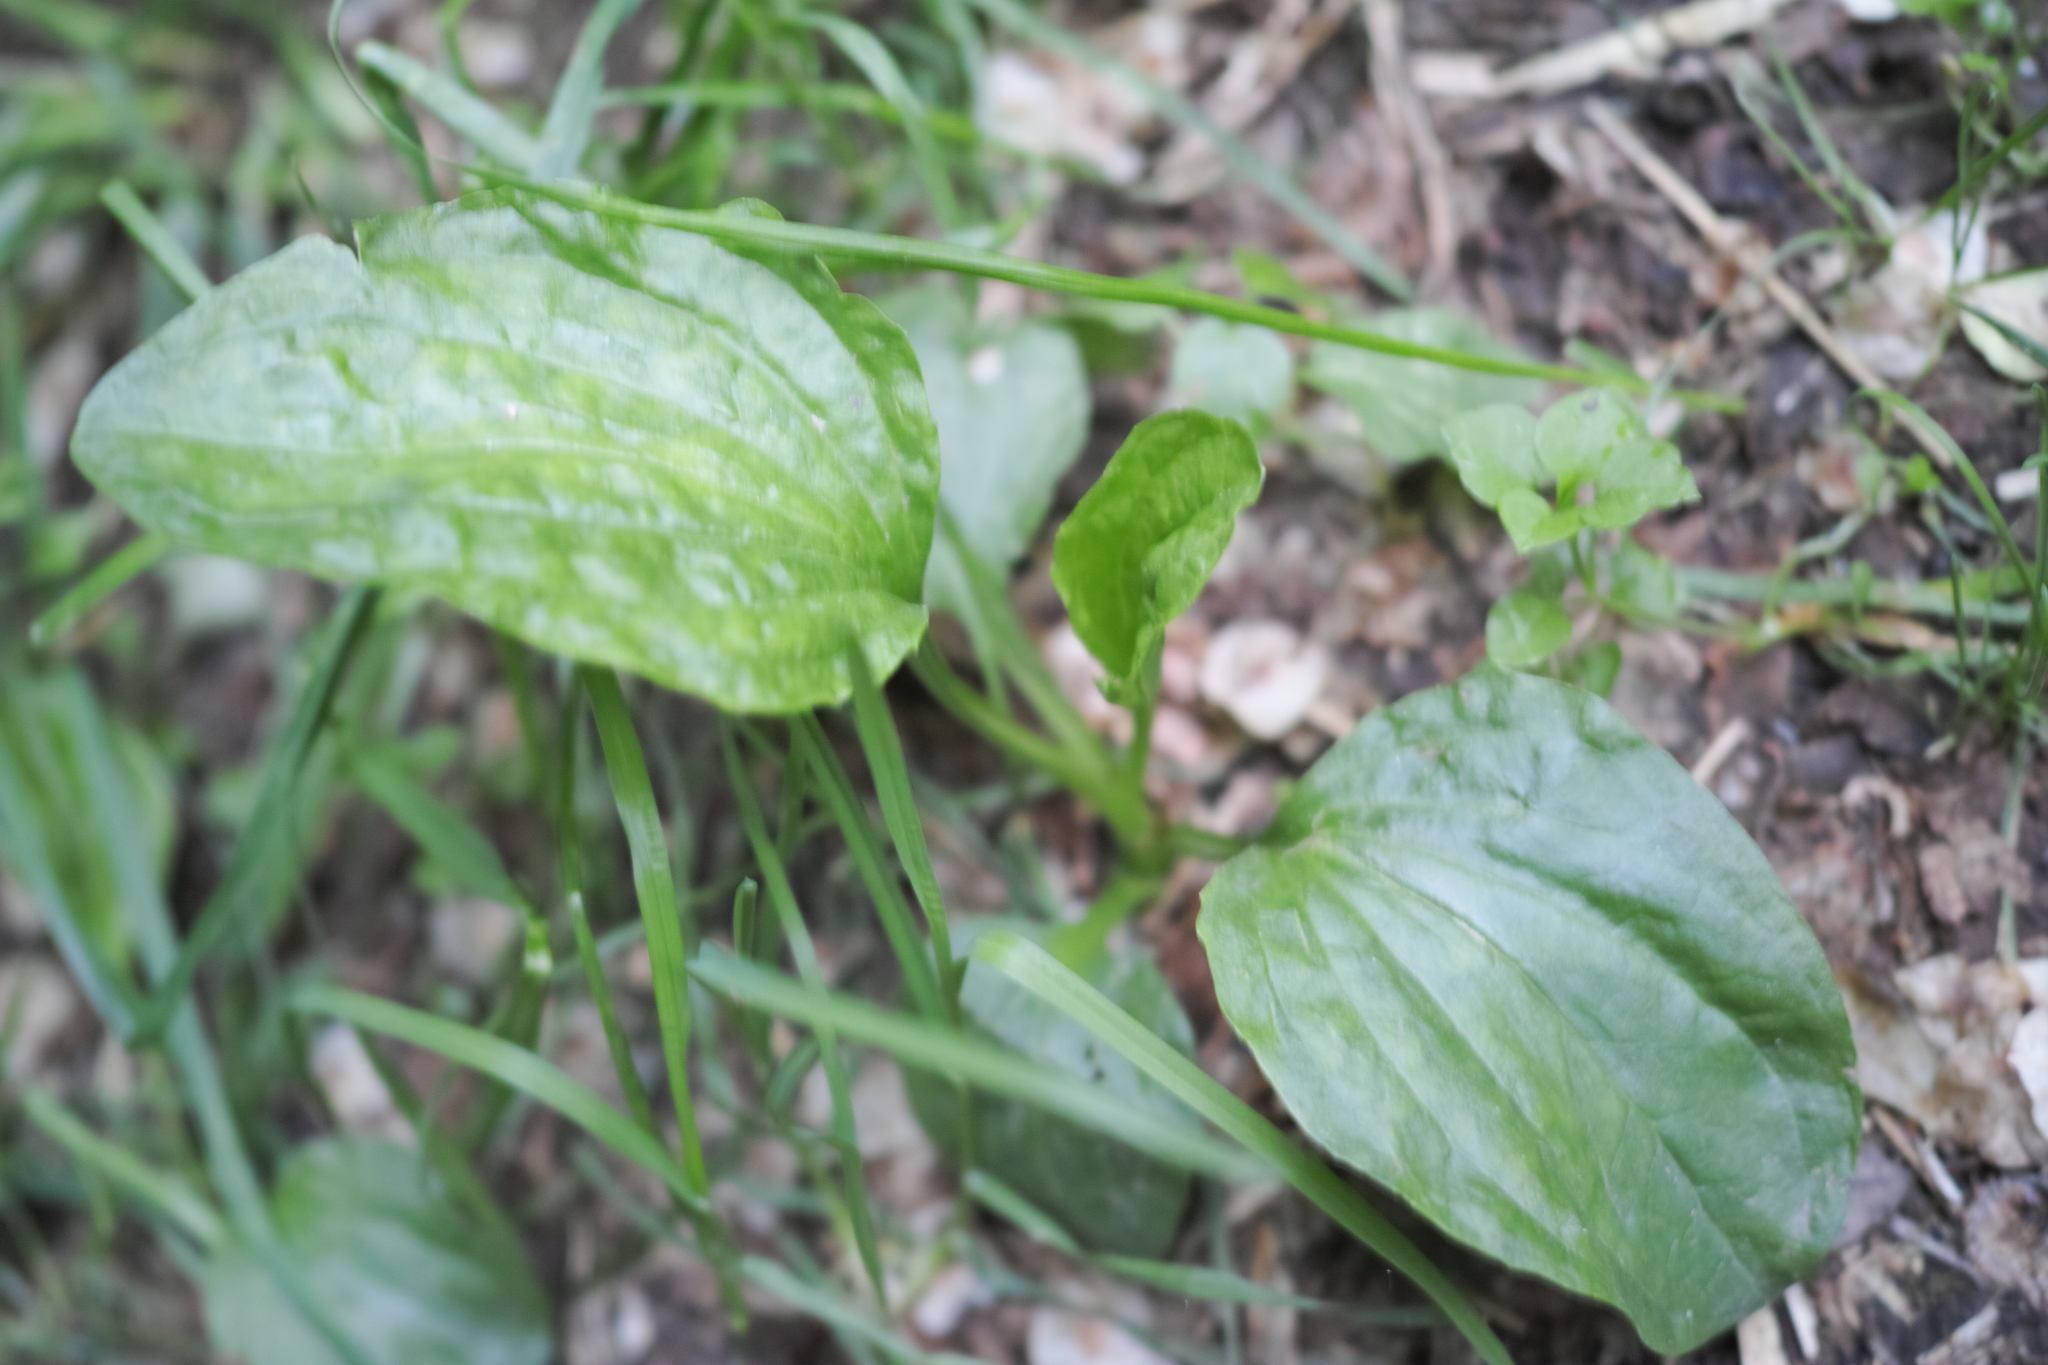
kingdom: Plantae
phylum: Tracheophyta
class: Magnoliopsida
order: Lamiales
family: Plantaginaceae
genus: Plantago
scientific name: Plantago major
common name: Common plantain
